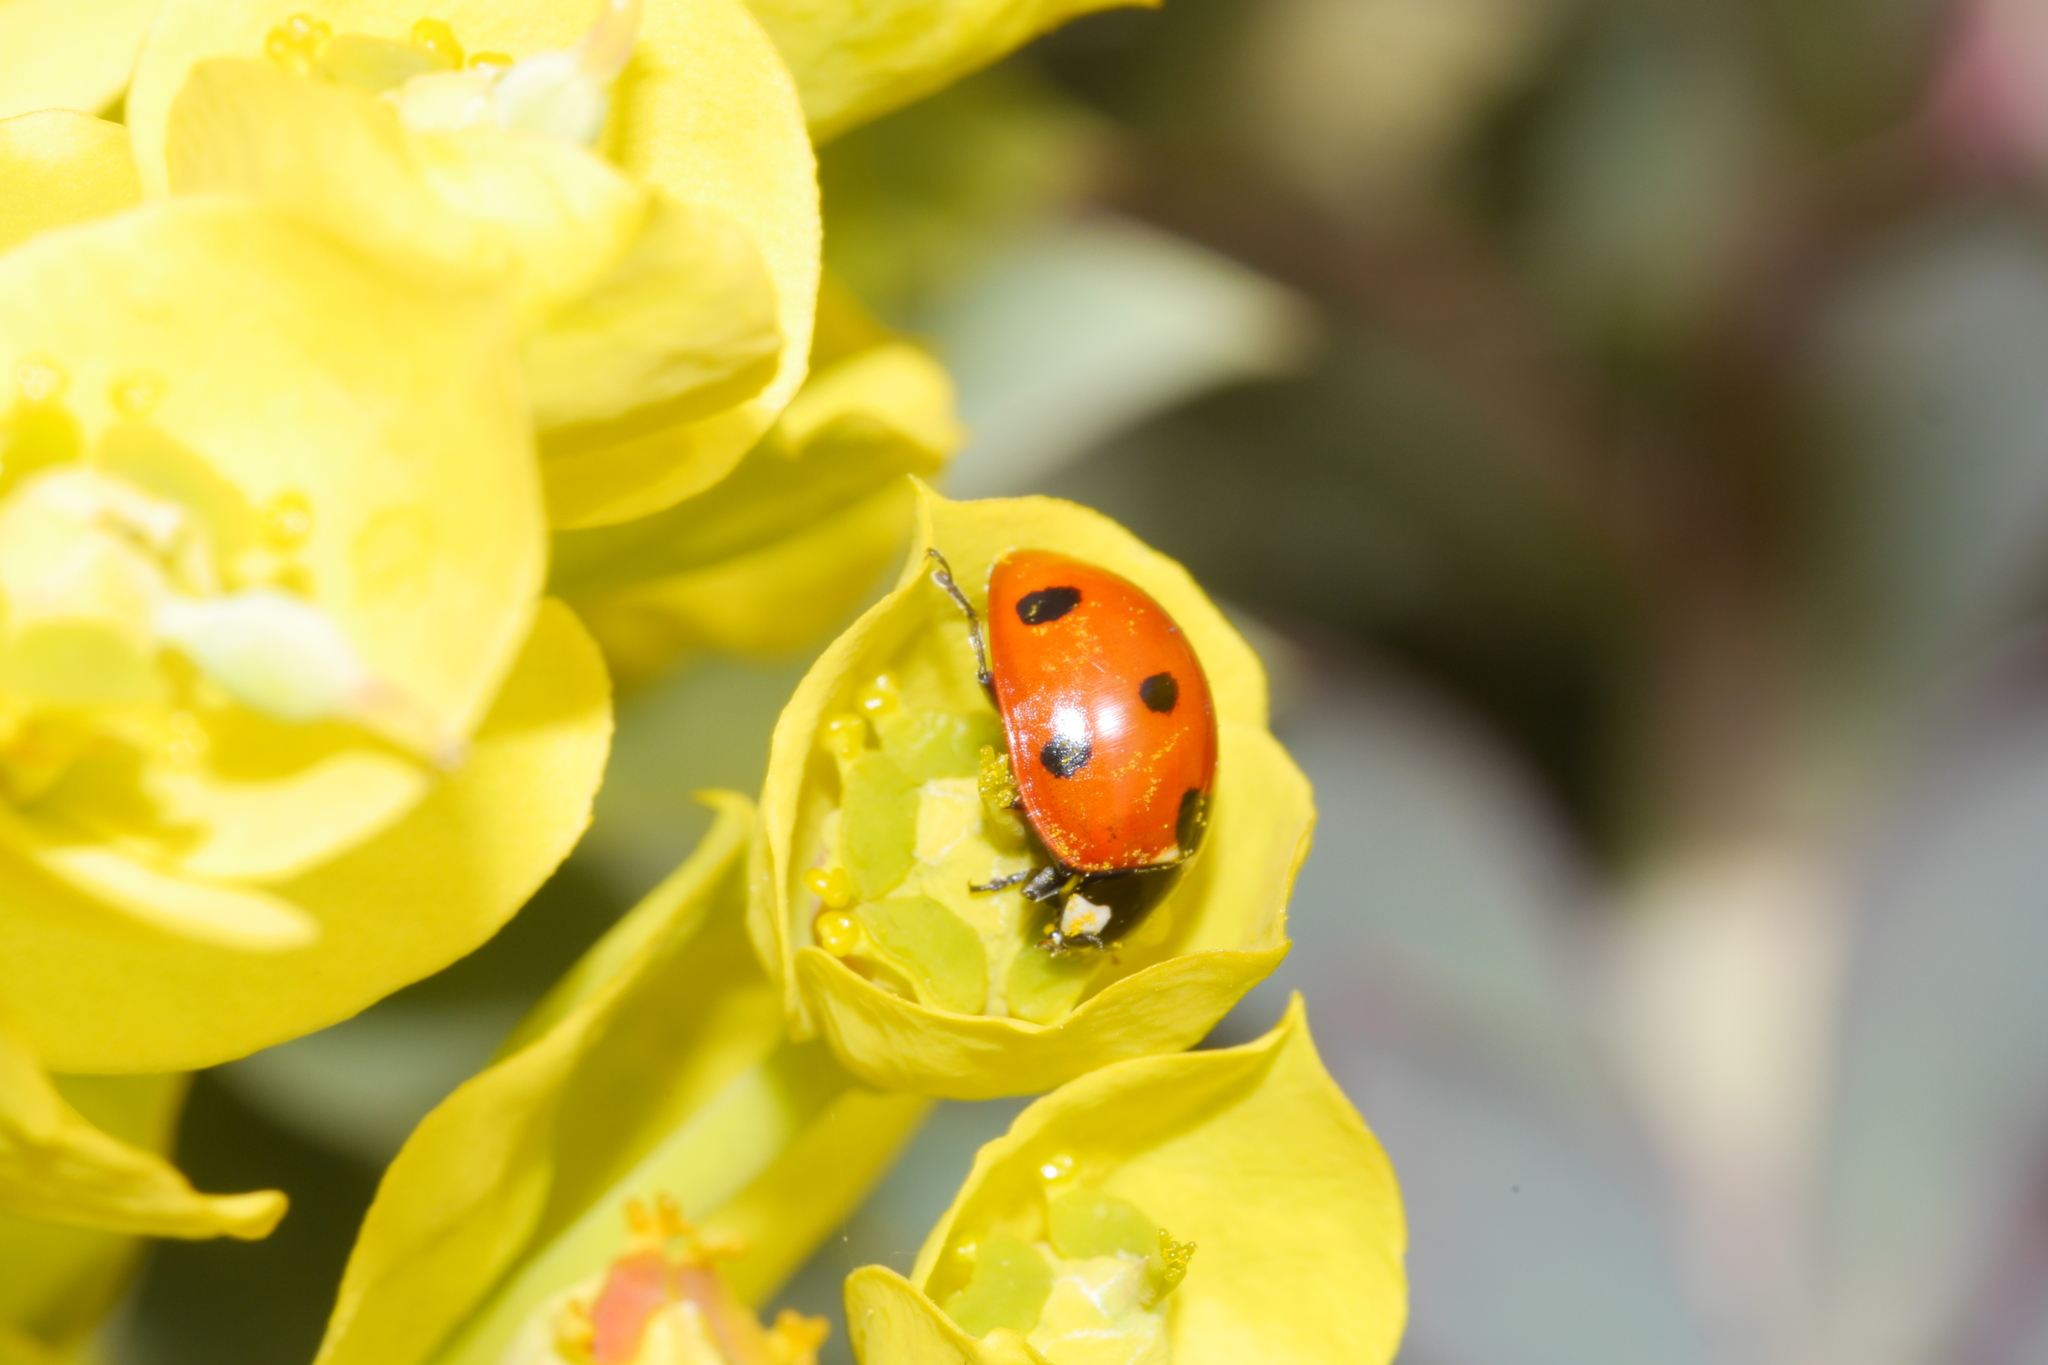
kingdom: Animalia
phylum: Arthropoda
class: Insecta
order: Coleoptera
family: Coccinellidae
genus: Coccinella
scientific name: Coccinella septempunctata
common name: Sevenspotted lady beetle
